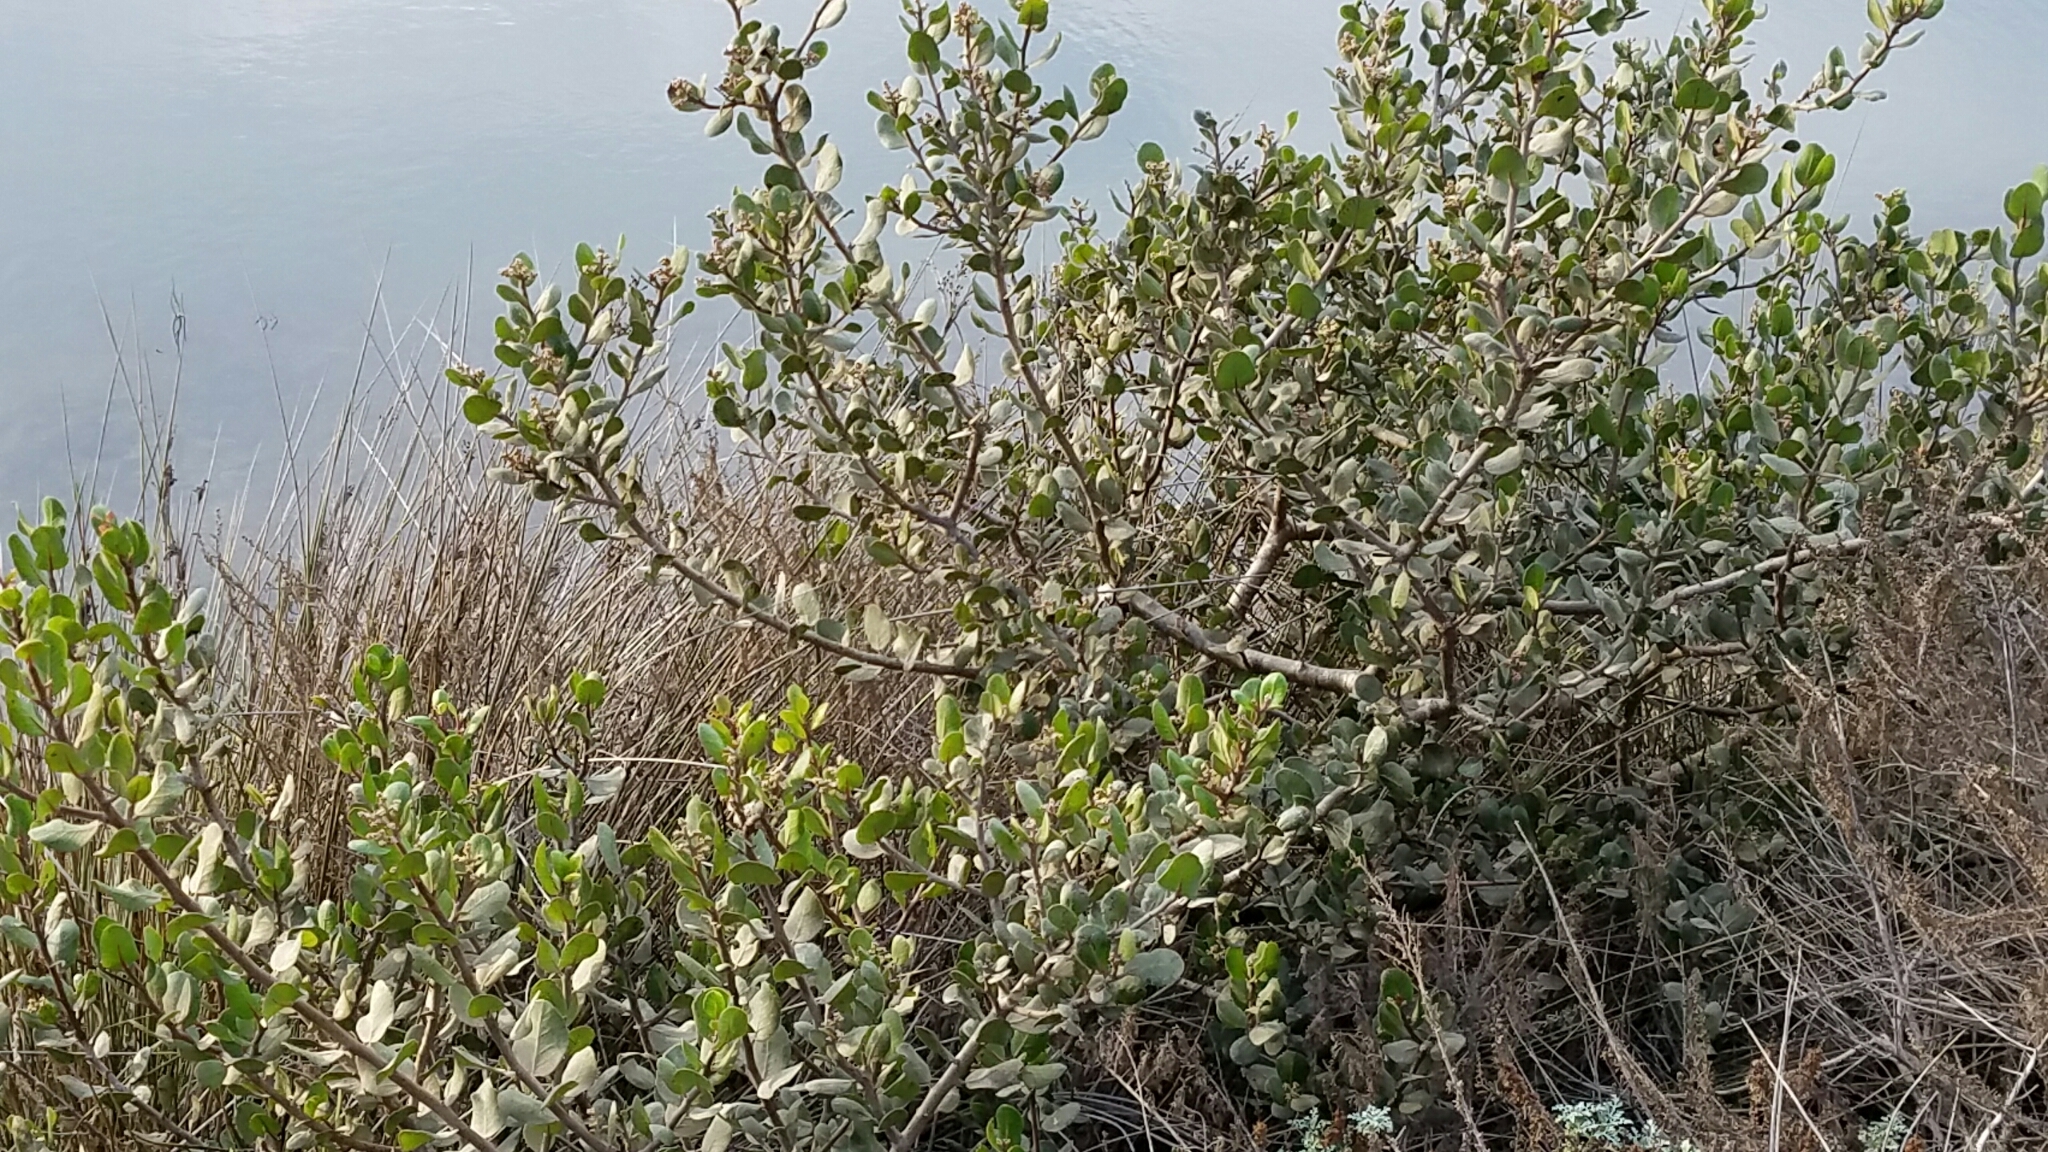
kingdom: Plantae
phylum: Tracheophyta
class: Magnoliopsida
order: Sapindales
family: Anacardiaceae
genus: Rhus
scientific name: Rhus integrifolia
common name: Lemonade sumac
